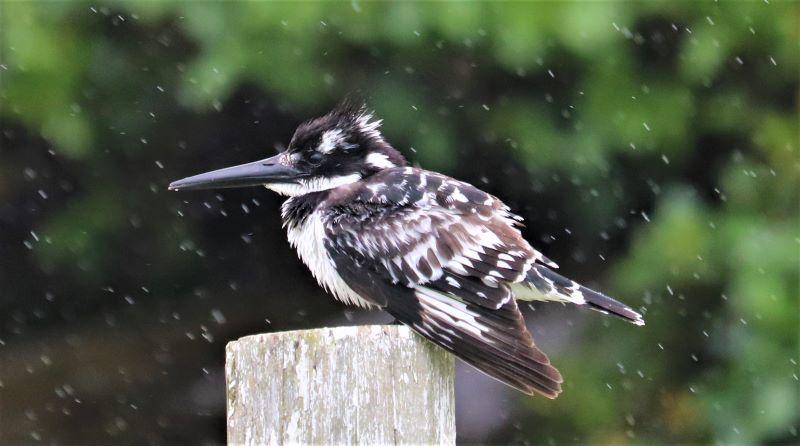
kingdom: Animalia
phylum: Chordata
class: Aves
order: Coraciiformes
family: Alcedinidae
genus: Ceryle
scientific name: Ceryle rudis
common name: Pied kingfisher
